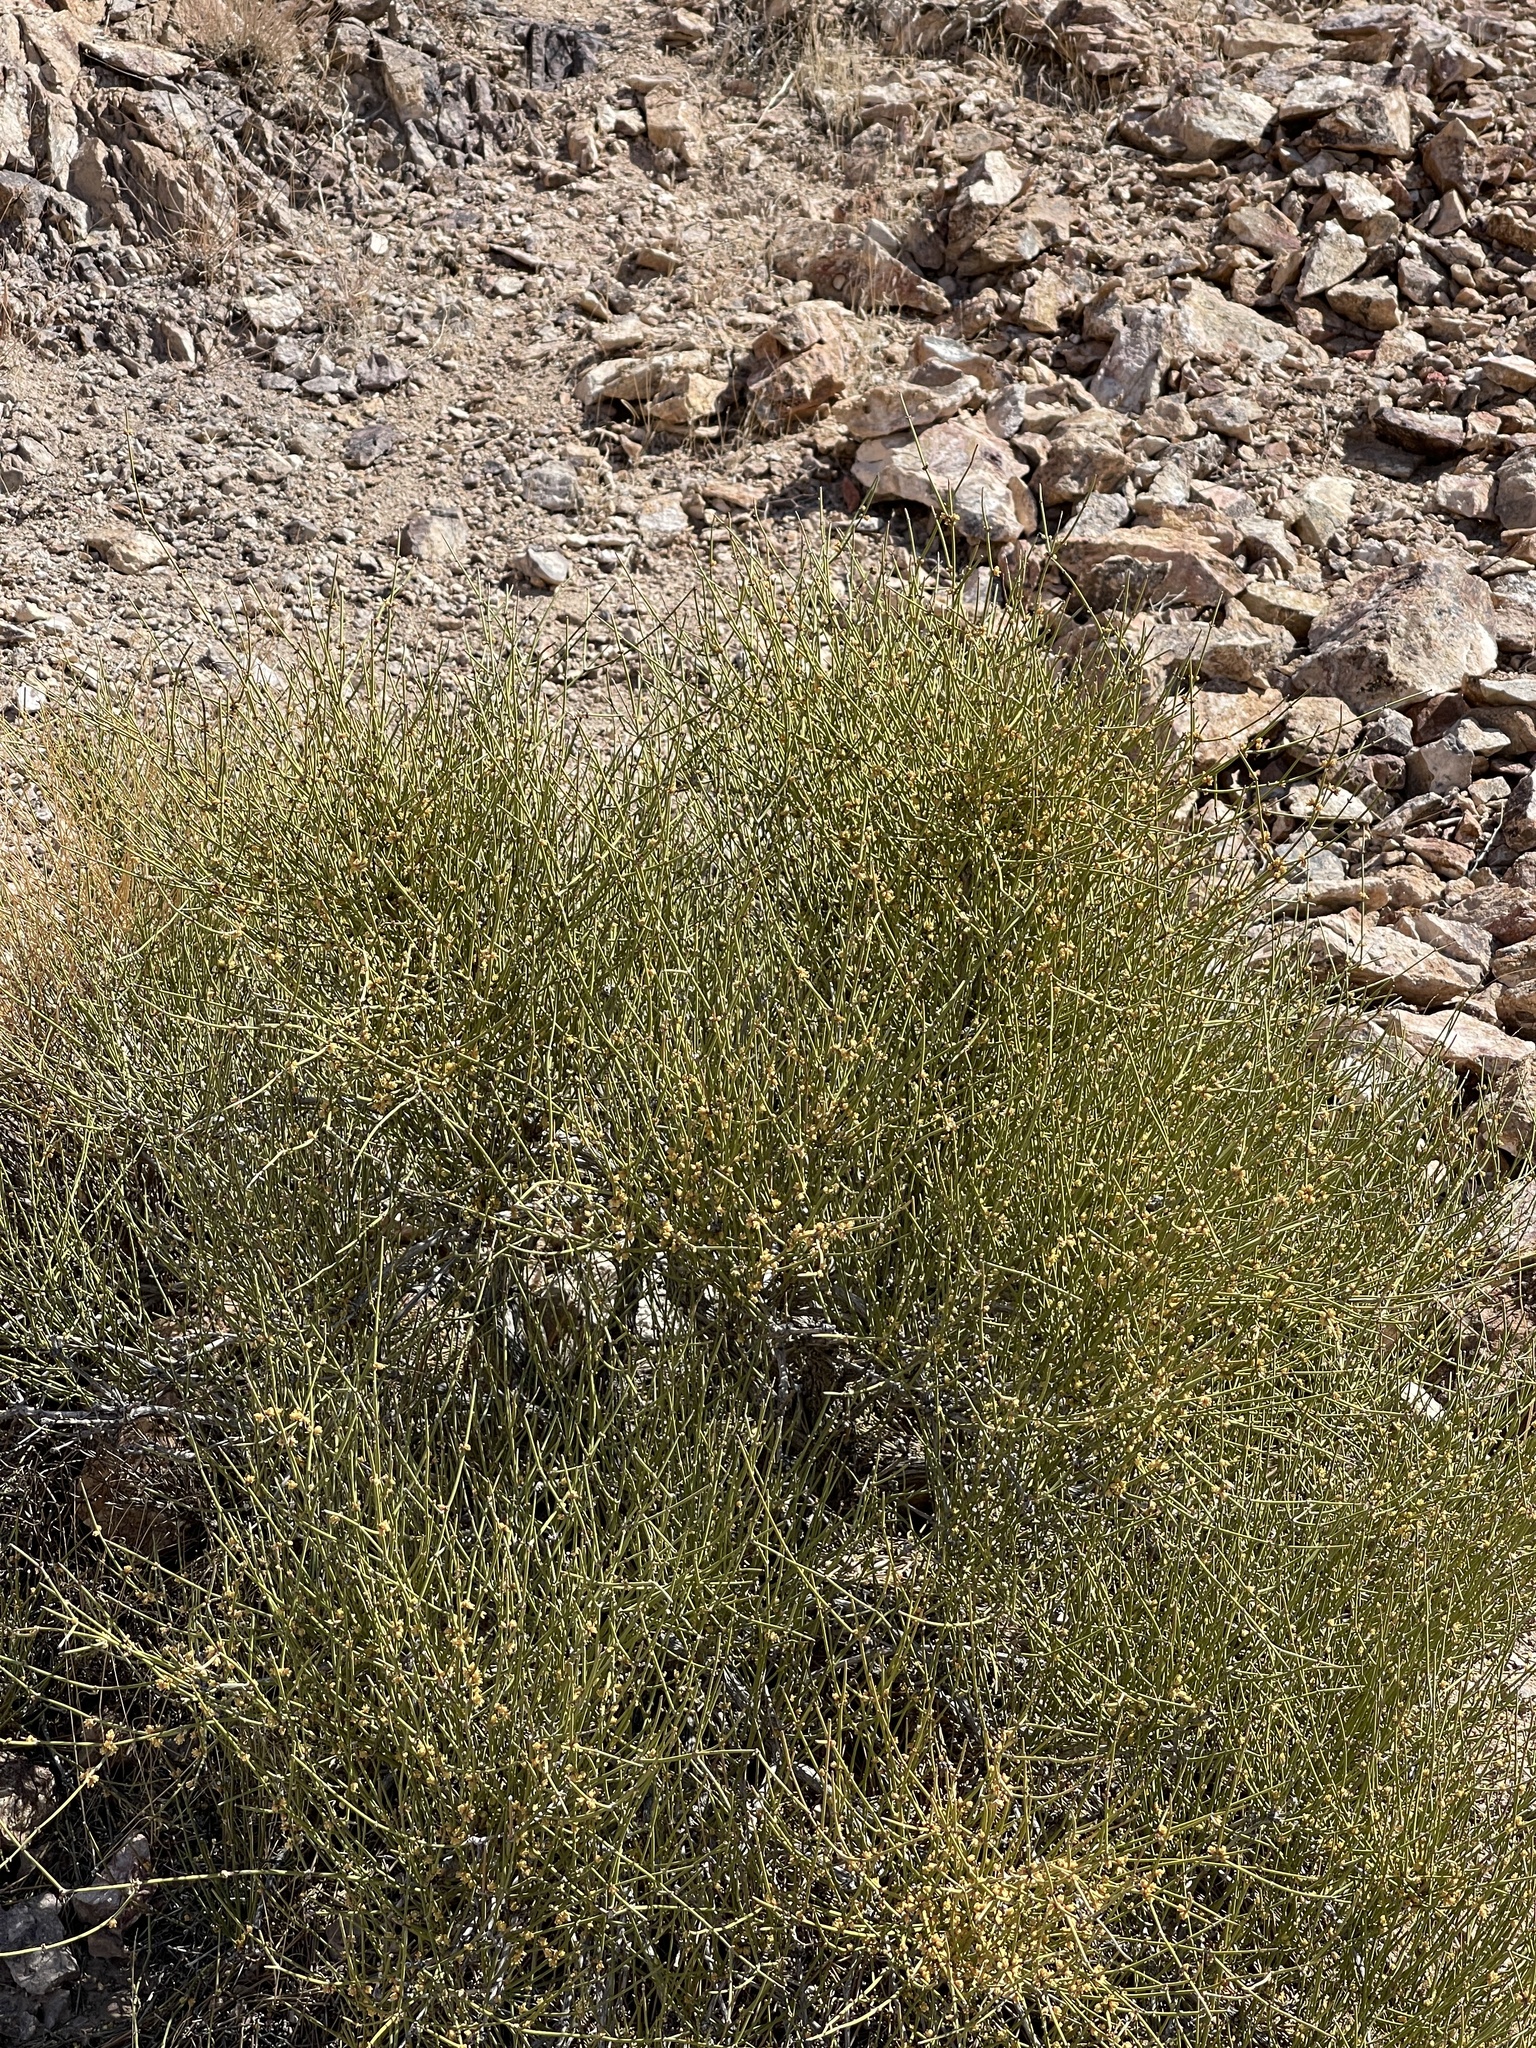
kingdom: Plantae
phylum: Tracheophyta
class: Gnetopsida
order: Ephedrales
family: Ephedraceae
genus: Ephedra
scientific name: Ephedra nevadensis
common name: Gray ephedra
